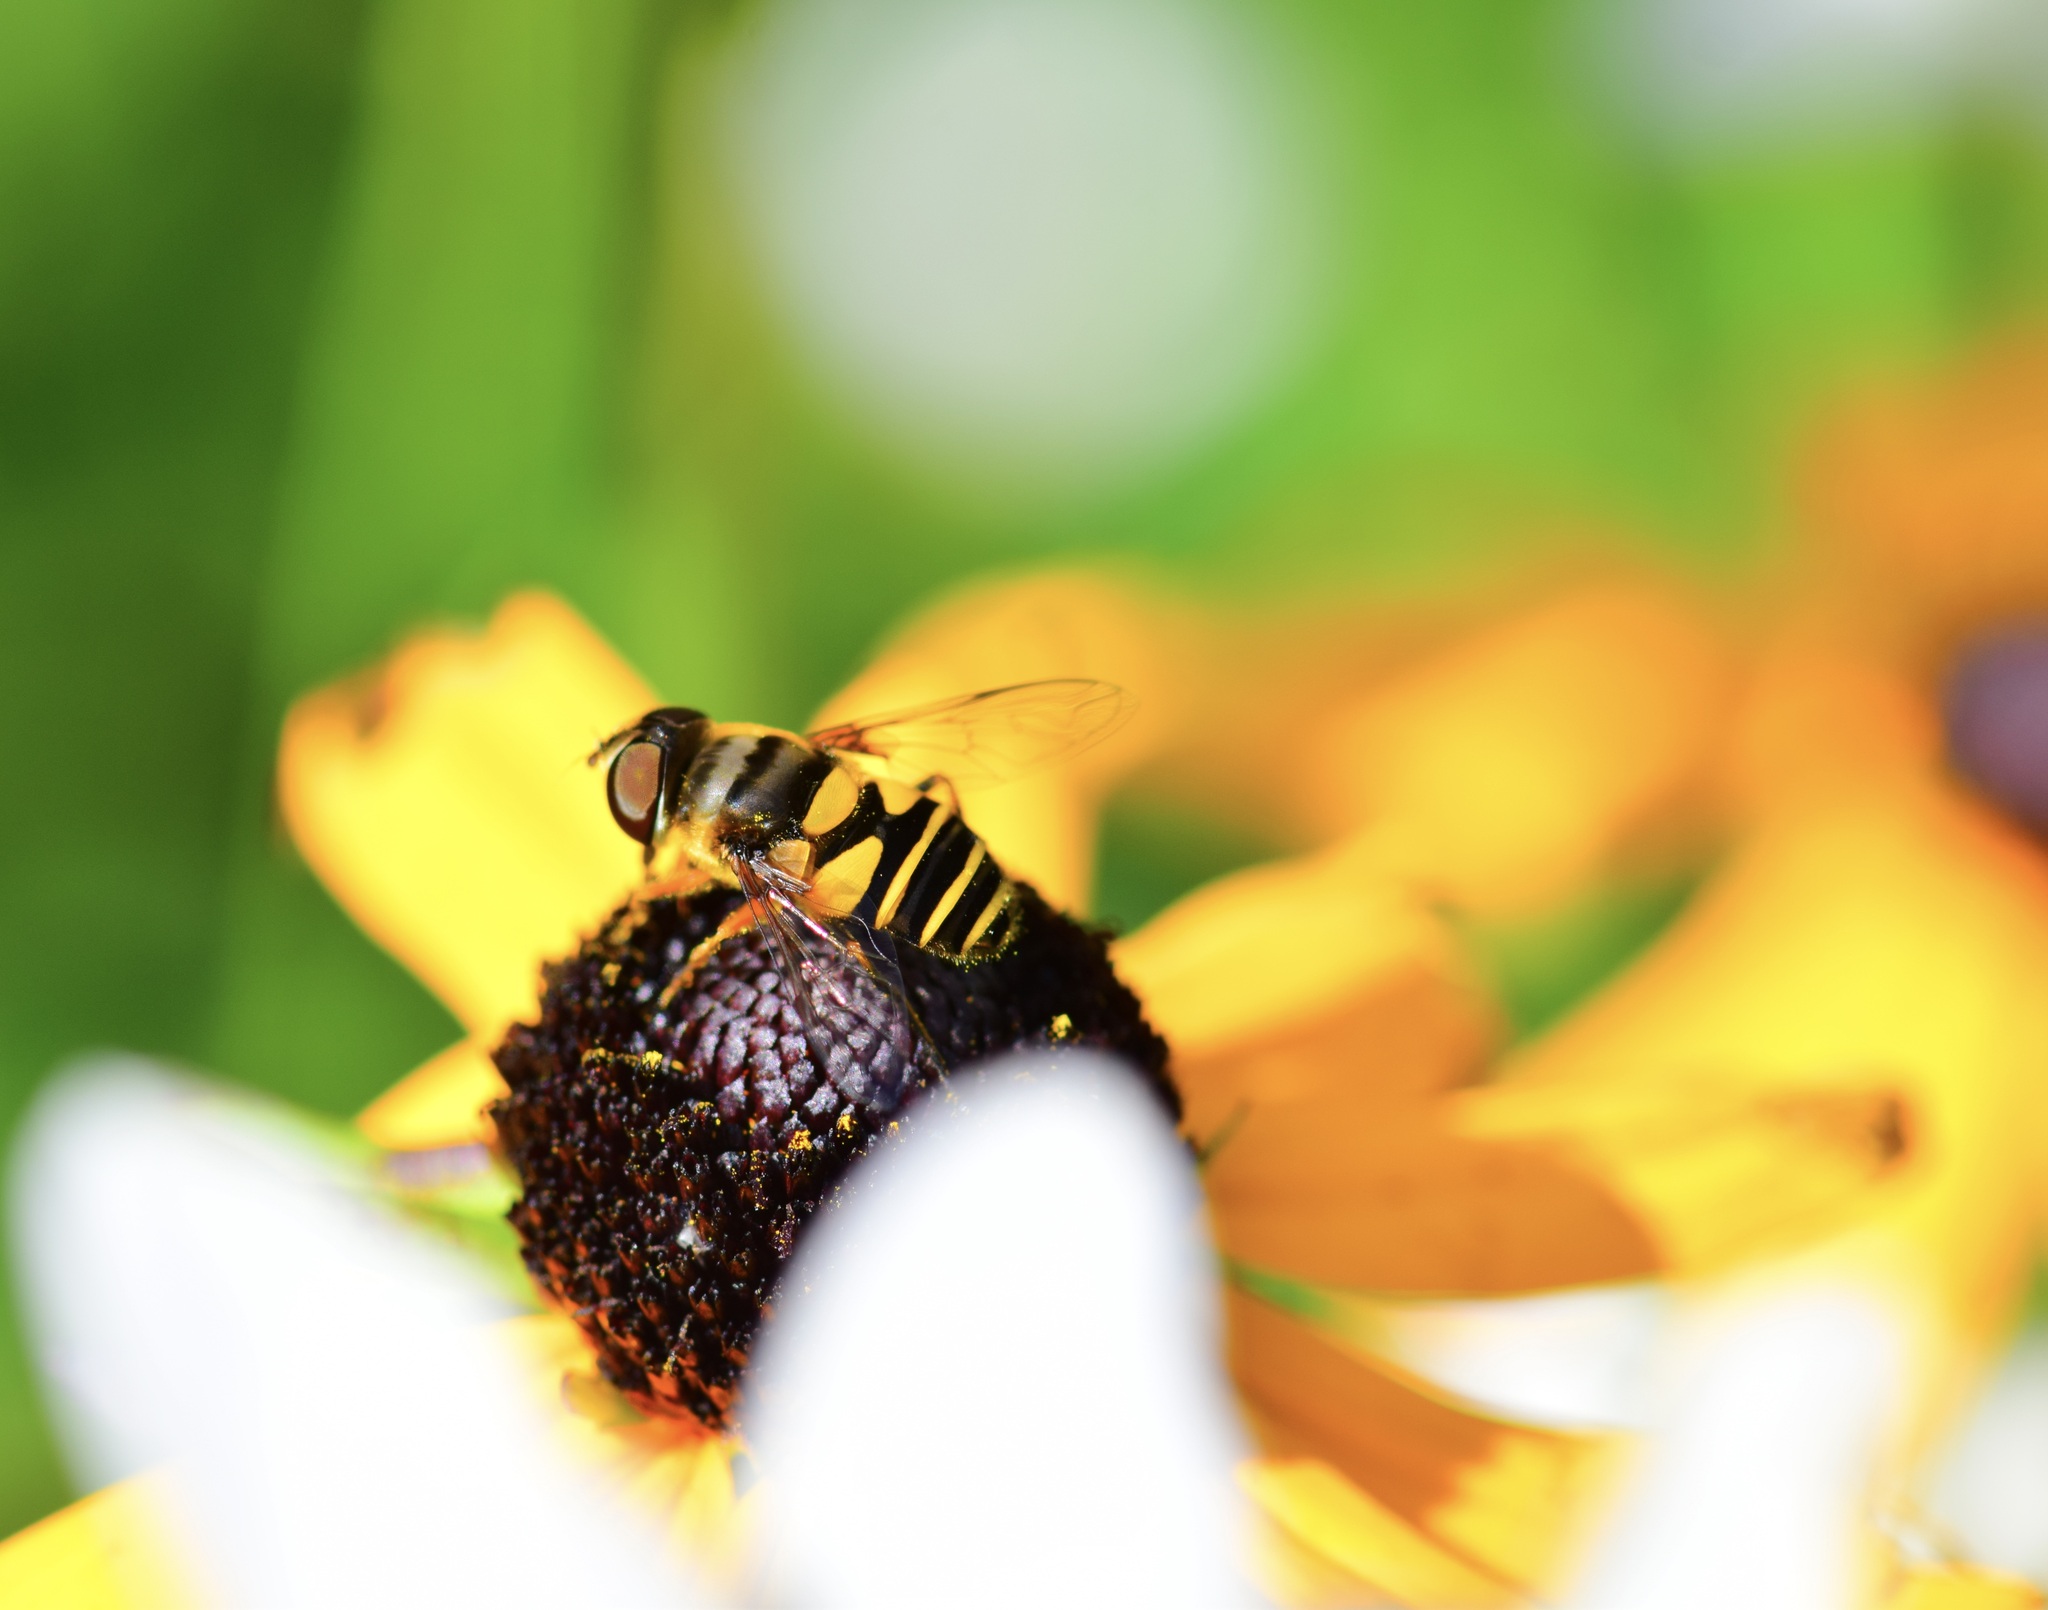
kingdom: Animalia
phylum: Arthropoda
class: Insecta
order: Diptera
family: Syrphidae
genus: Eristalis
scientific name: Eristalis transversa
